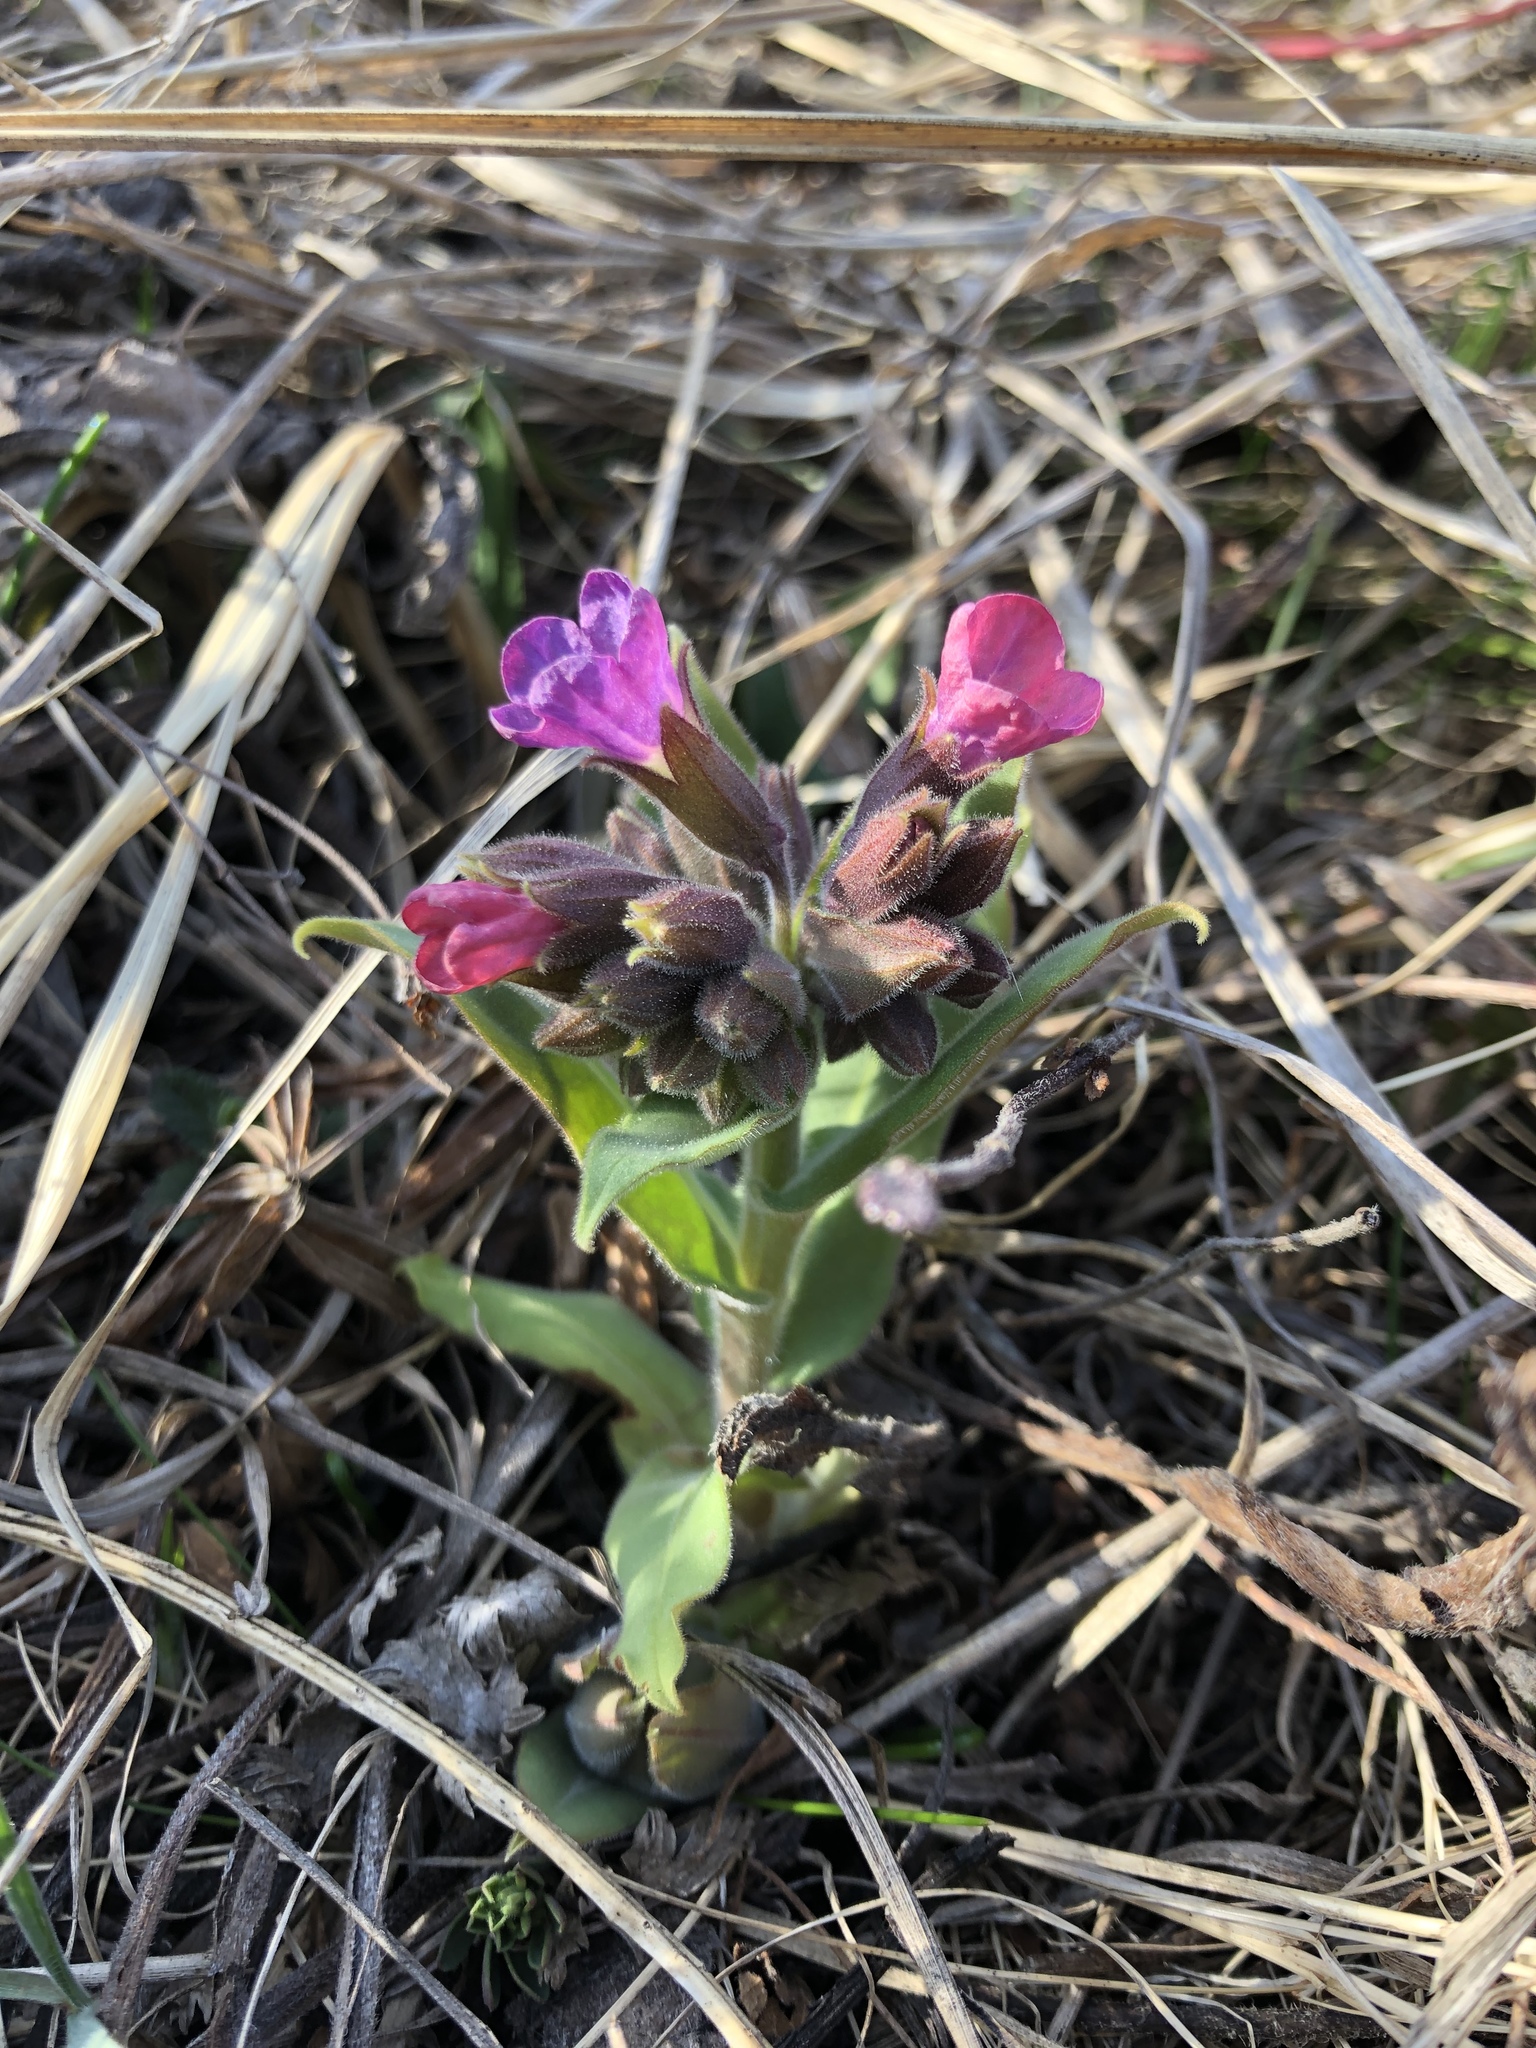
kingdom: Plantae
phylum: Tracheophyta
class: Magnoliopsida
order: Boraginales
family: Boraginaceae
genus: Pulmonaria
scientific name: Pulmonaria mollis
